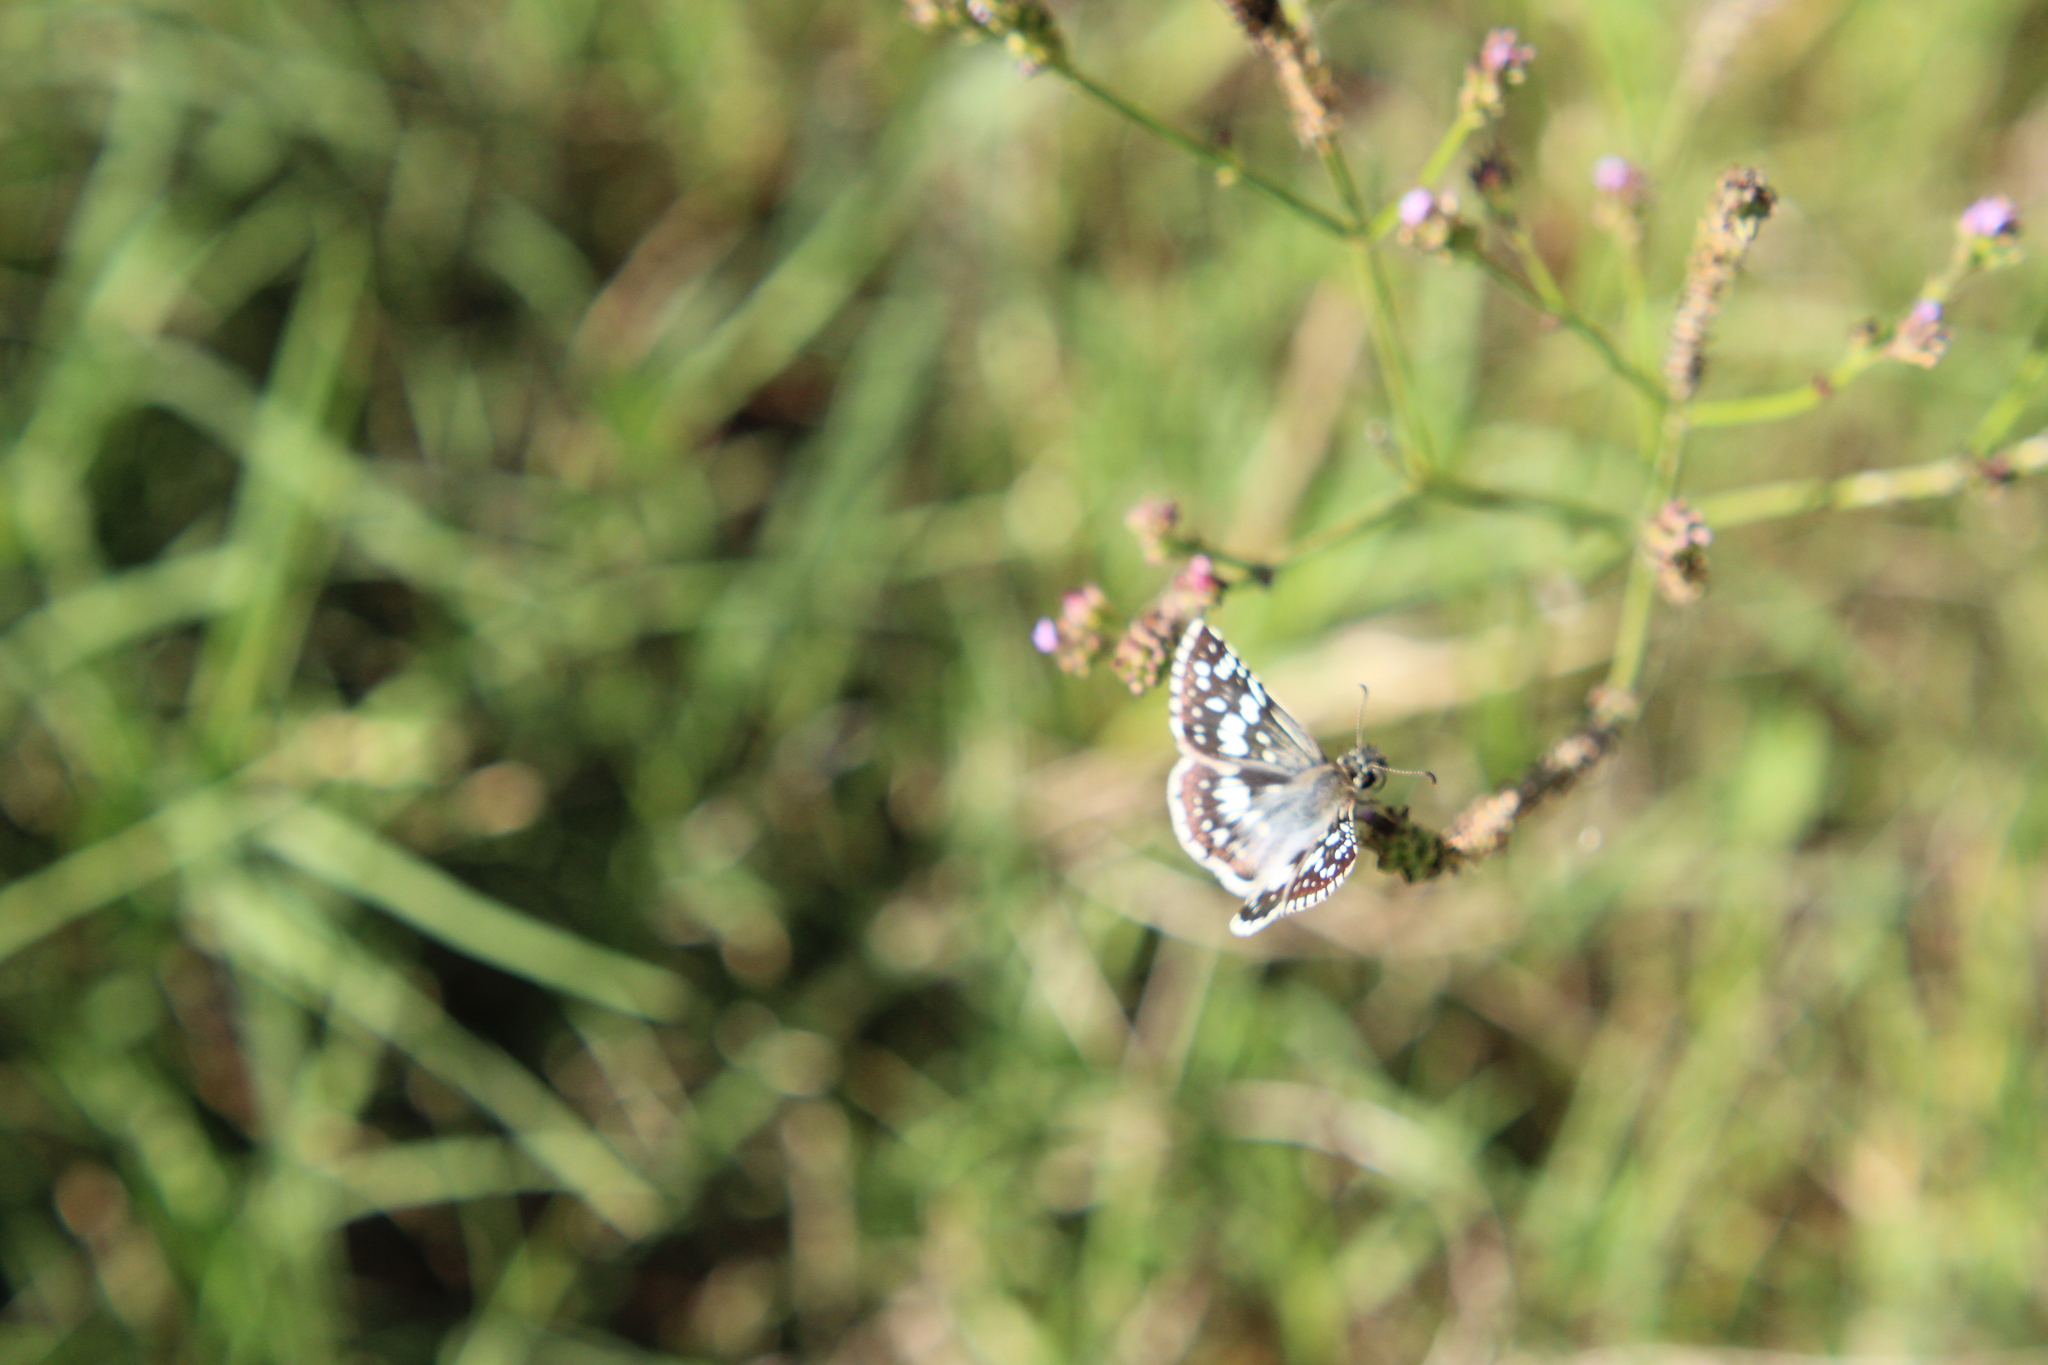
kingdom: Animalia
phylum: Arthropoda
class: Insecta
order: Lepidoptera
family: Hesperiidae
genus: Burnsius
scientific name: Burnsius orcynoides
